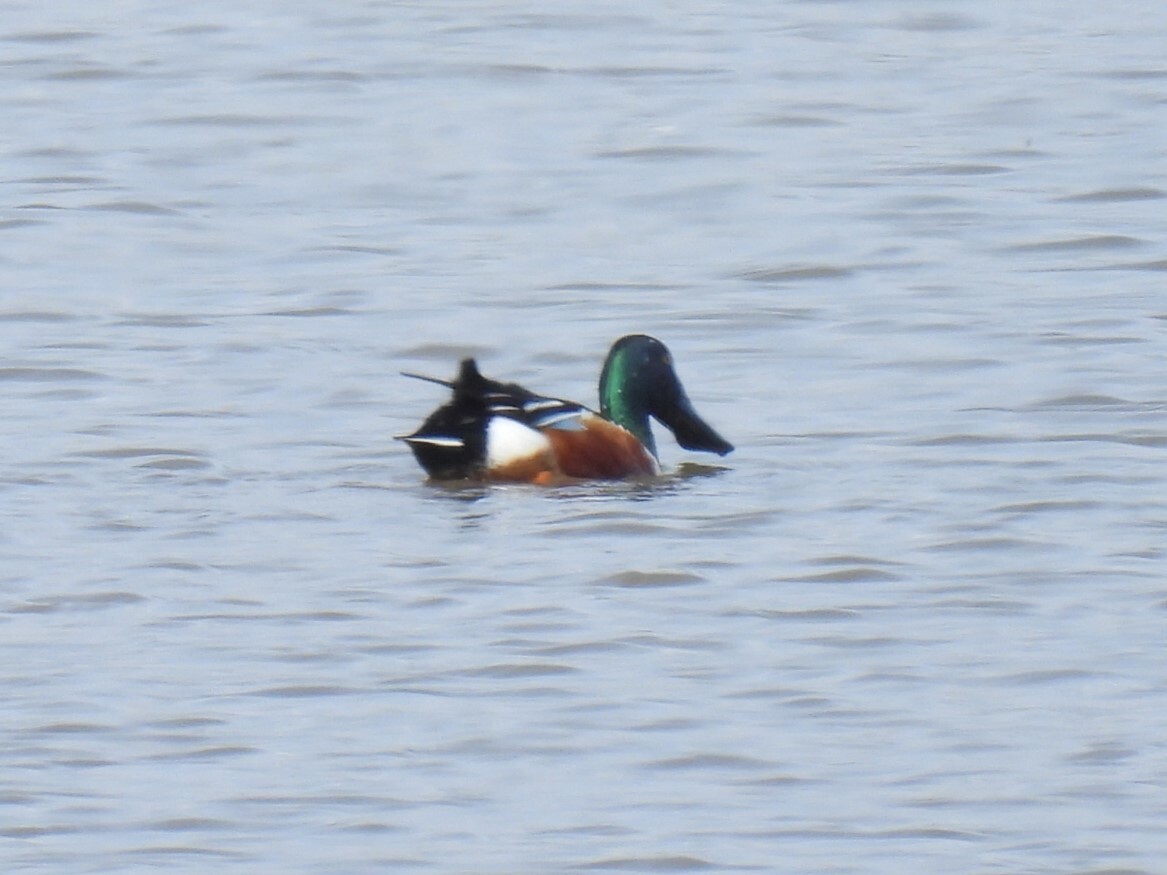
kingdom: Animalia
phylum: Chordata
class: Aves
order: Anseriformes
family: Anatidae
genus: Spatula
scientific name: Spatula clypeata
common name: Northern shoveler
